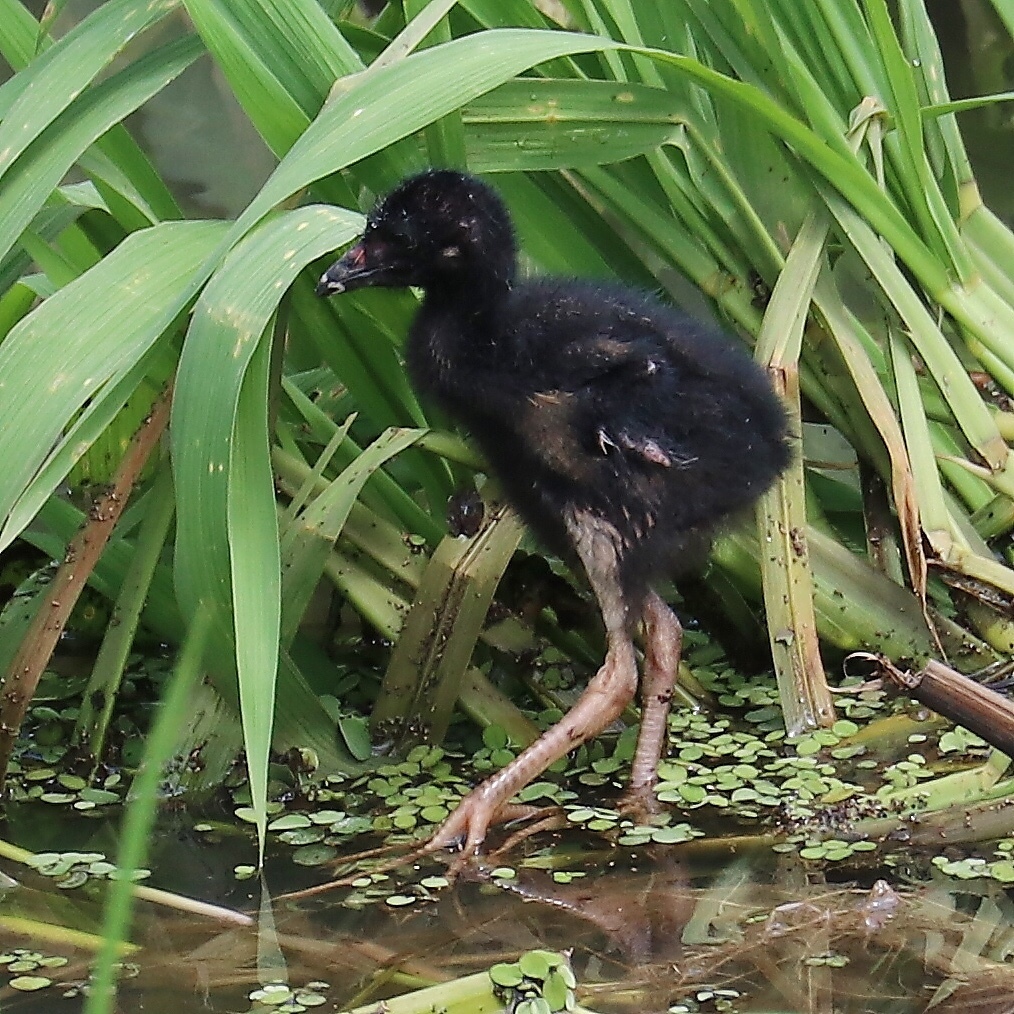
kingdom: Animalia
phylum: Chordata
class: Aves
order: Gruiformes
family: Rallidae
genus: Porphyrio
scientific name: Porphyrio martinica
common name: Purple gallinule
